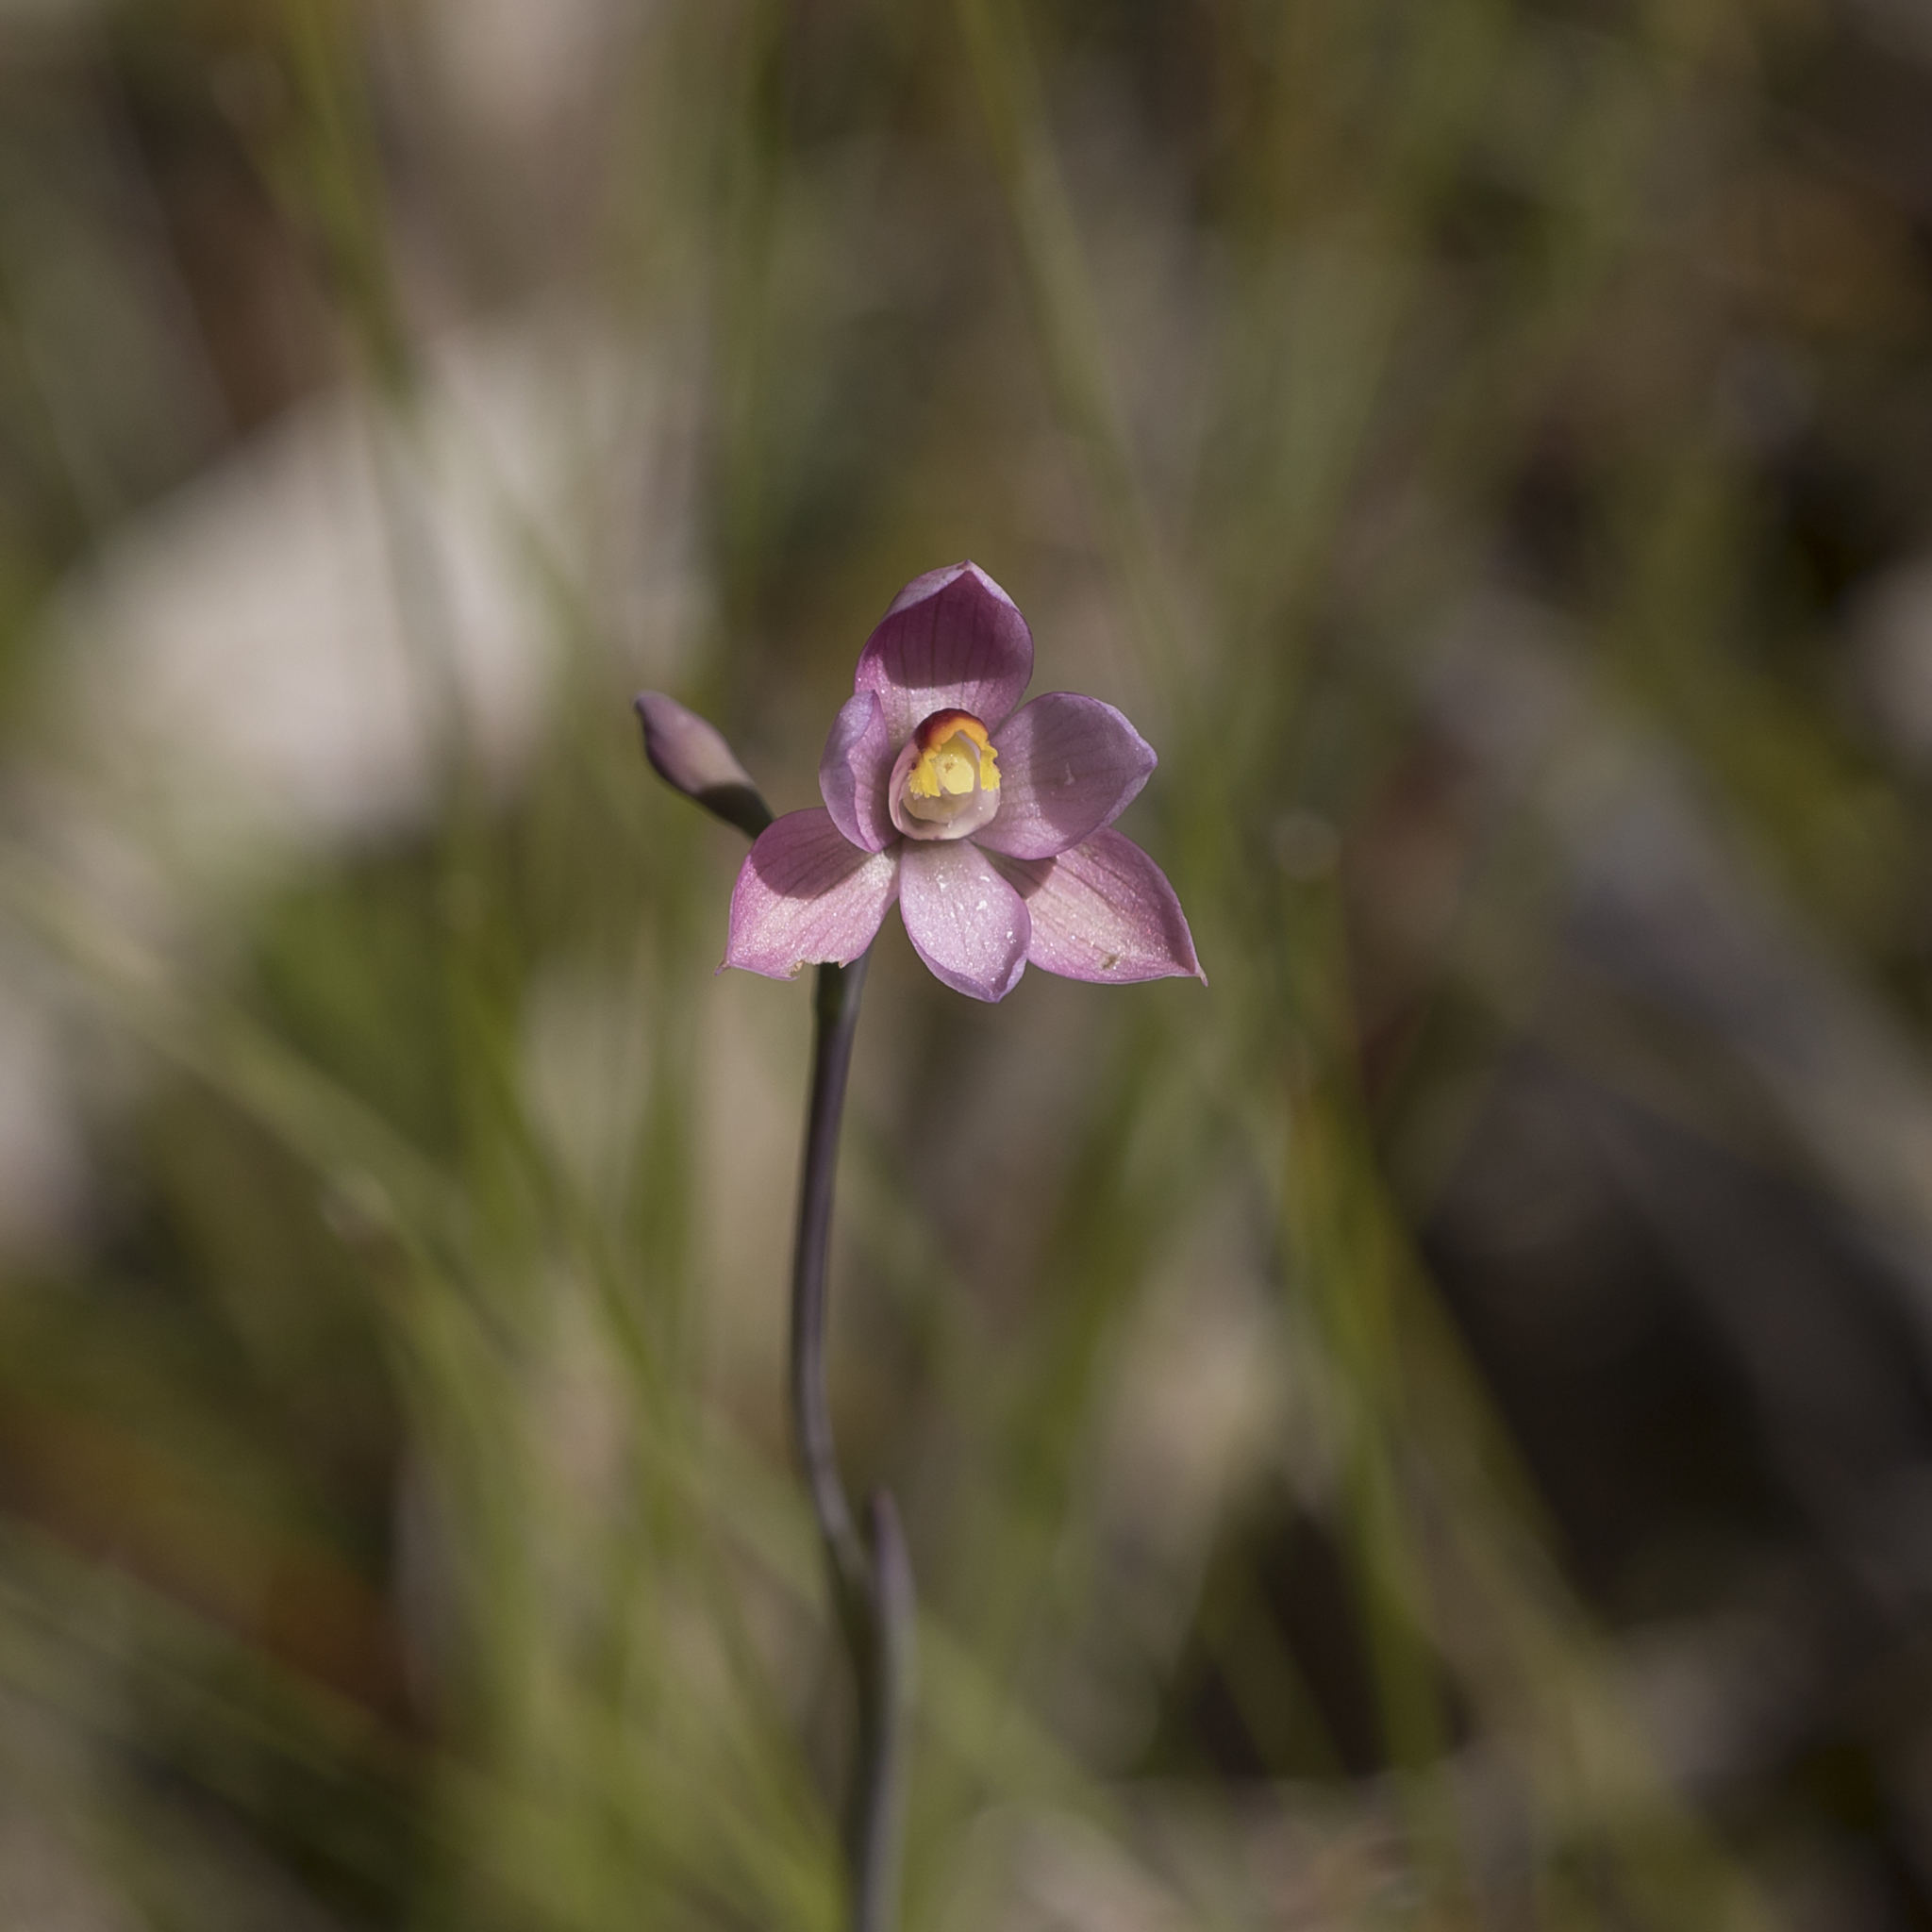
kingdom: Plantae
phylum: Tracheophyta
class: Liliopsida
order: Asparagales
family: Orchidaceae
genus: Thelymitra
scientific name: Thelymitra rubra
